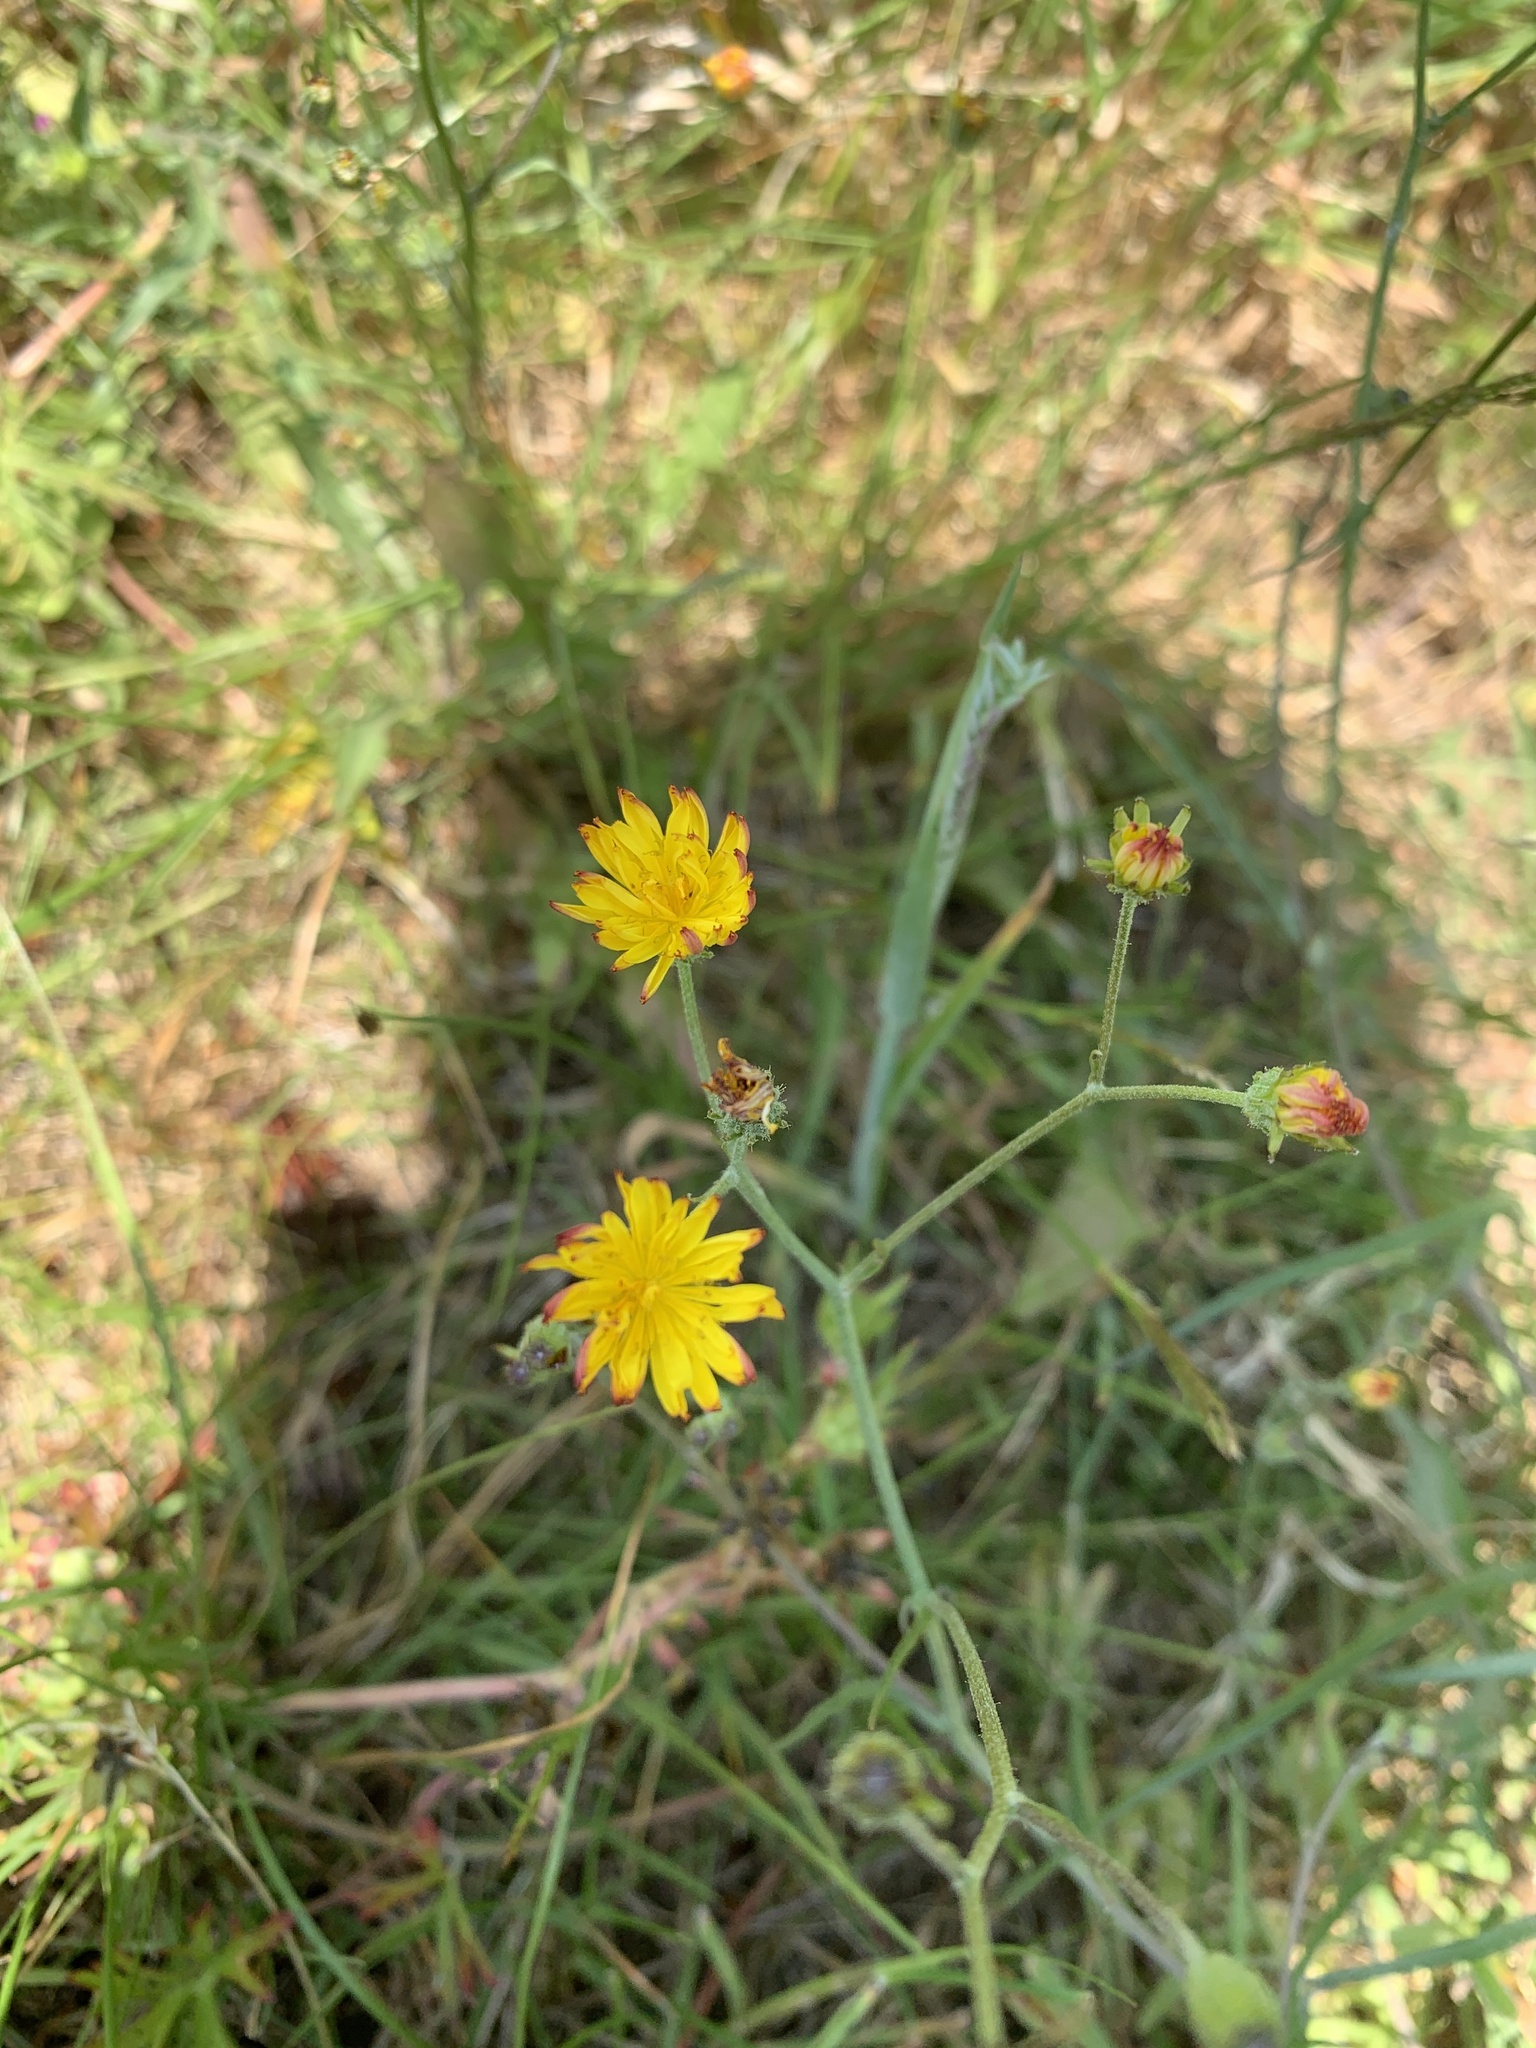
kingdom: Plantae
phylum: Tracheophyta
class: Magnoliopsida
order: Asterales
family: Asteraceae
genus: Crepis
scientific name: Crepis capillaris
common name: Smooth hawksbeard
